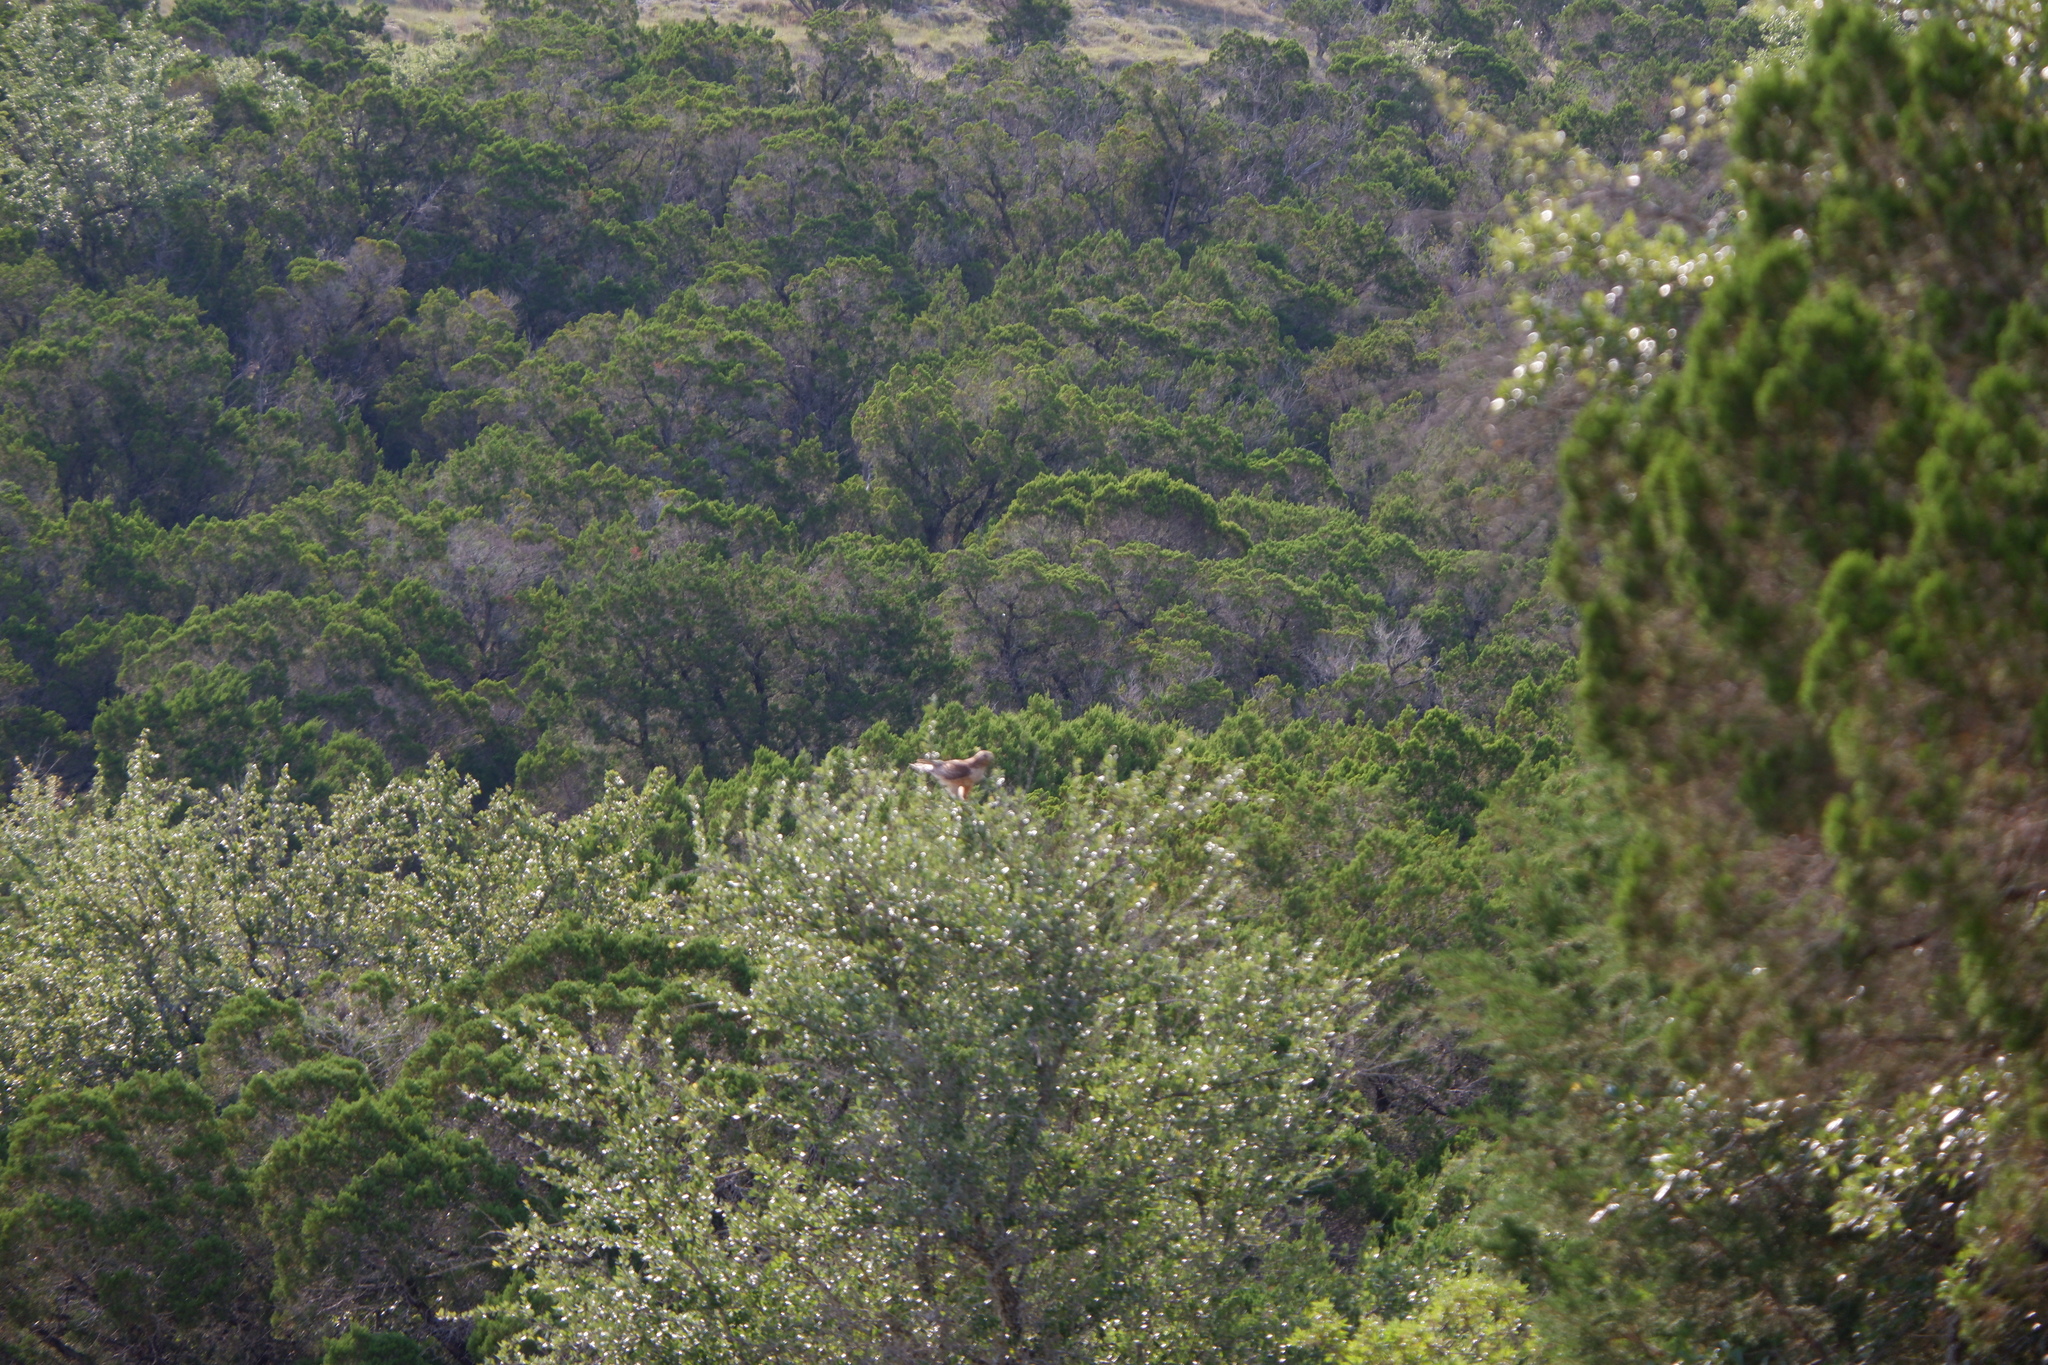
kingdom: Animalia
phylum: Chordata
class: Aves
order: Accipitriformes
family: Accipitridae
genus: Buteo
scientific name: Buteo jamaicensis
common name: Red-tailed hawk
